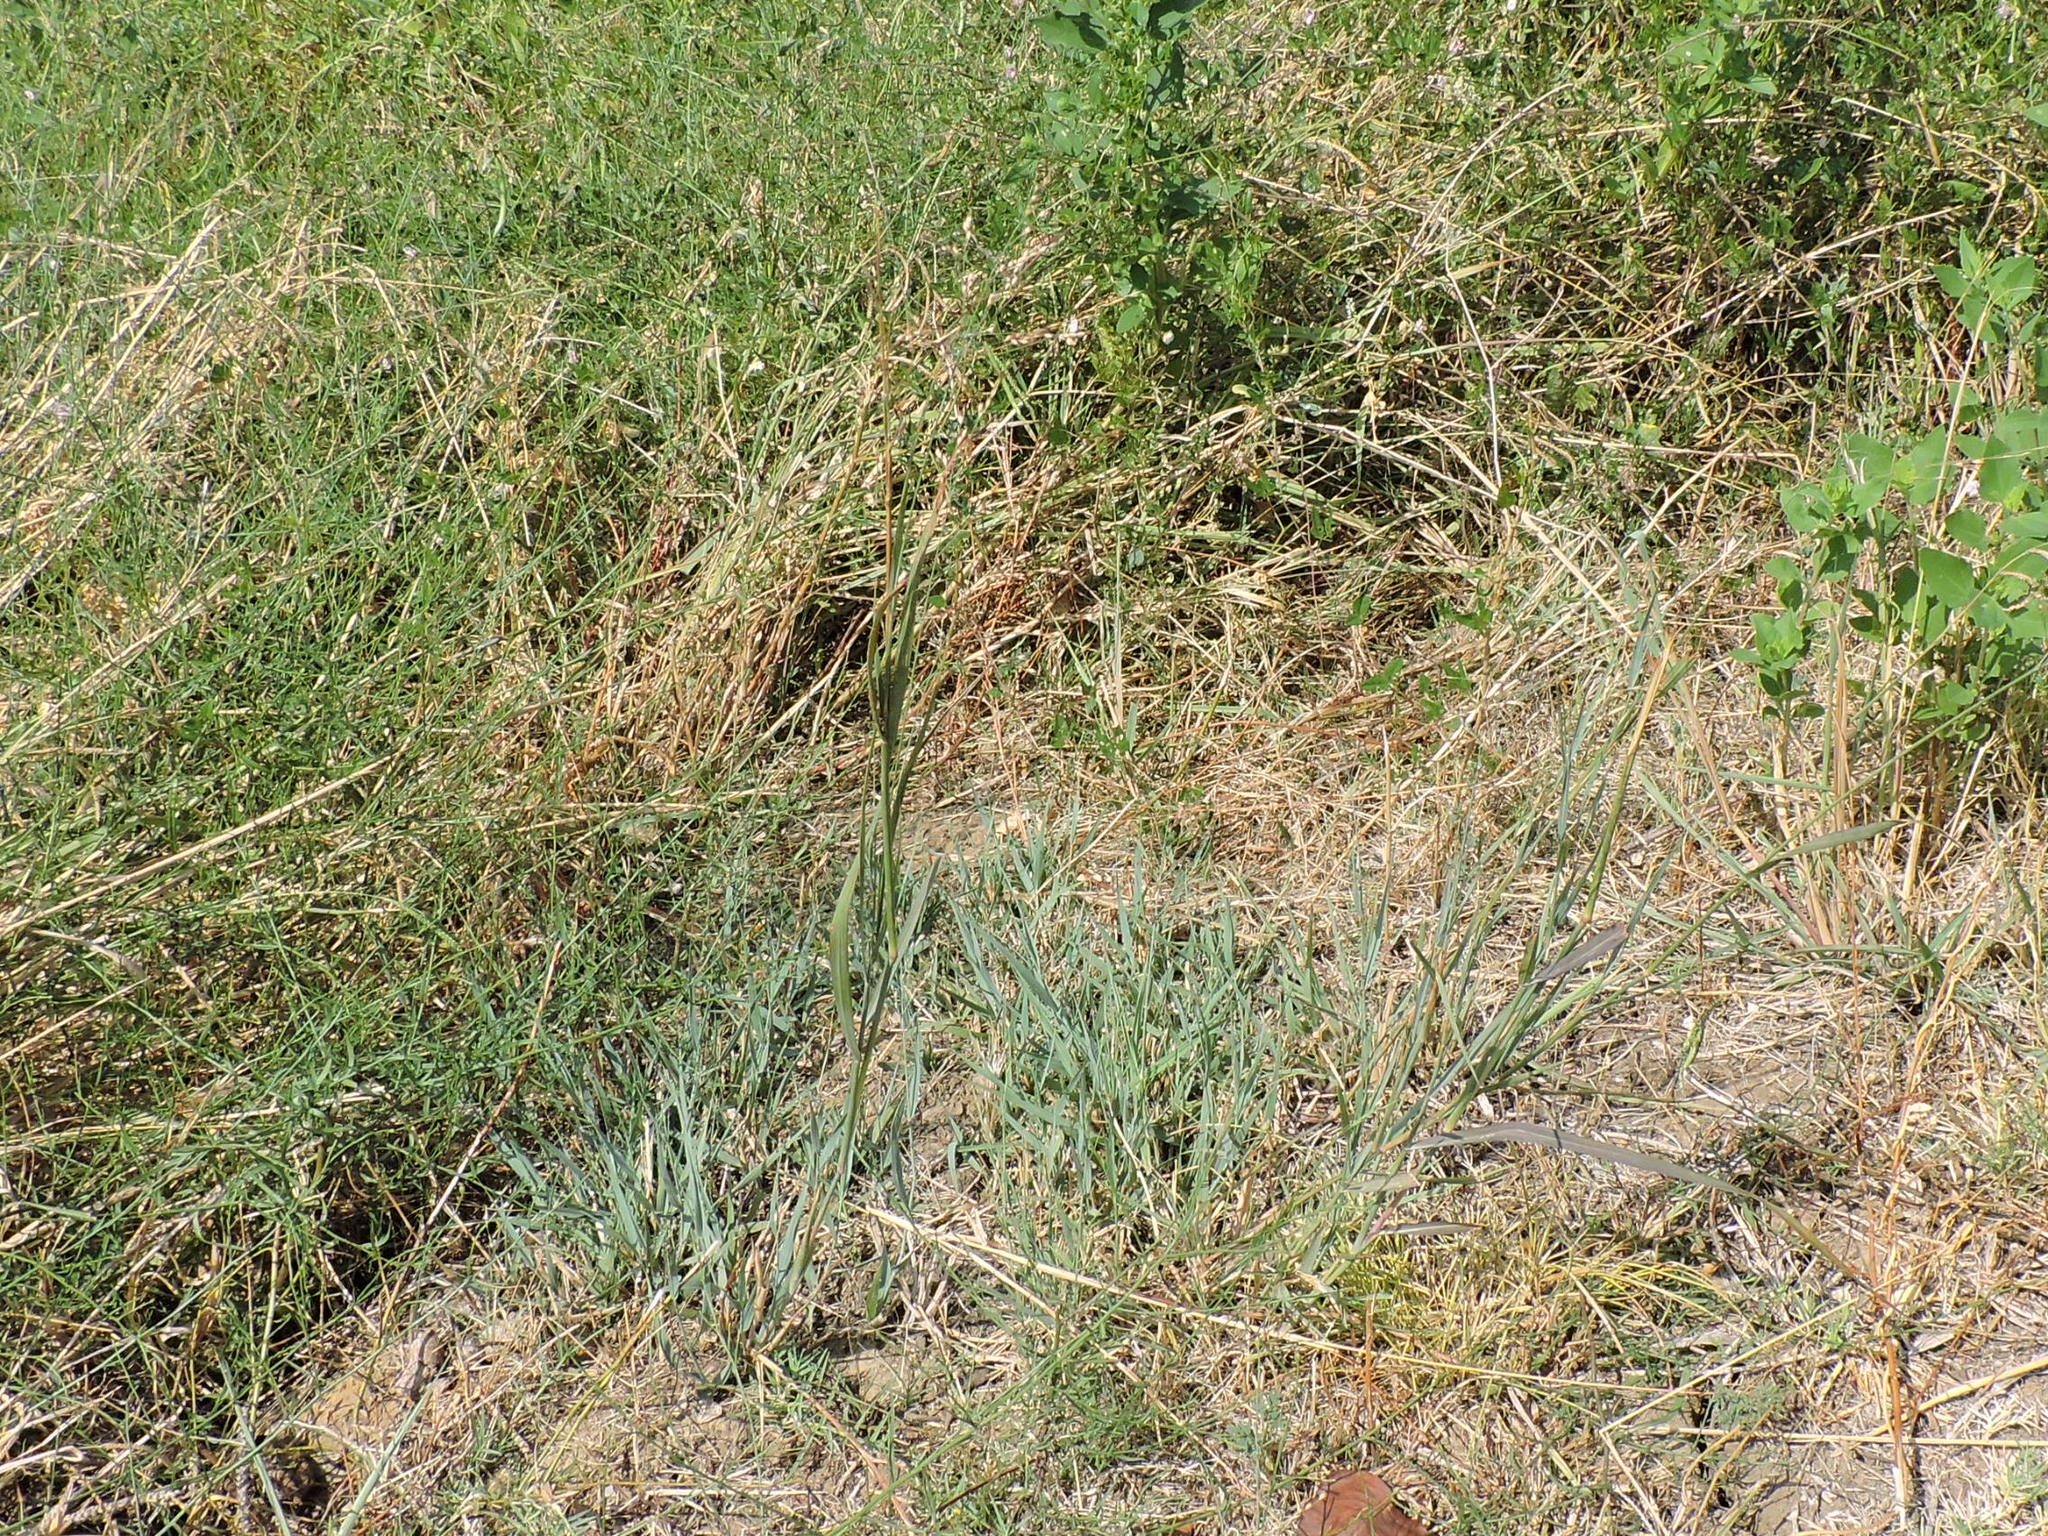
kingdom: Plantae
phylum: Tracheophyta
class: Liliopsida
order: Poales
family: Poaceae
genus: Panicum
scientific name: Panicum virgatum
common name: Switchgrass
